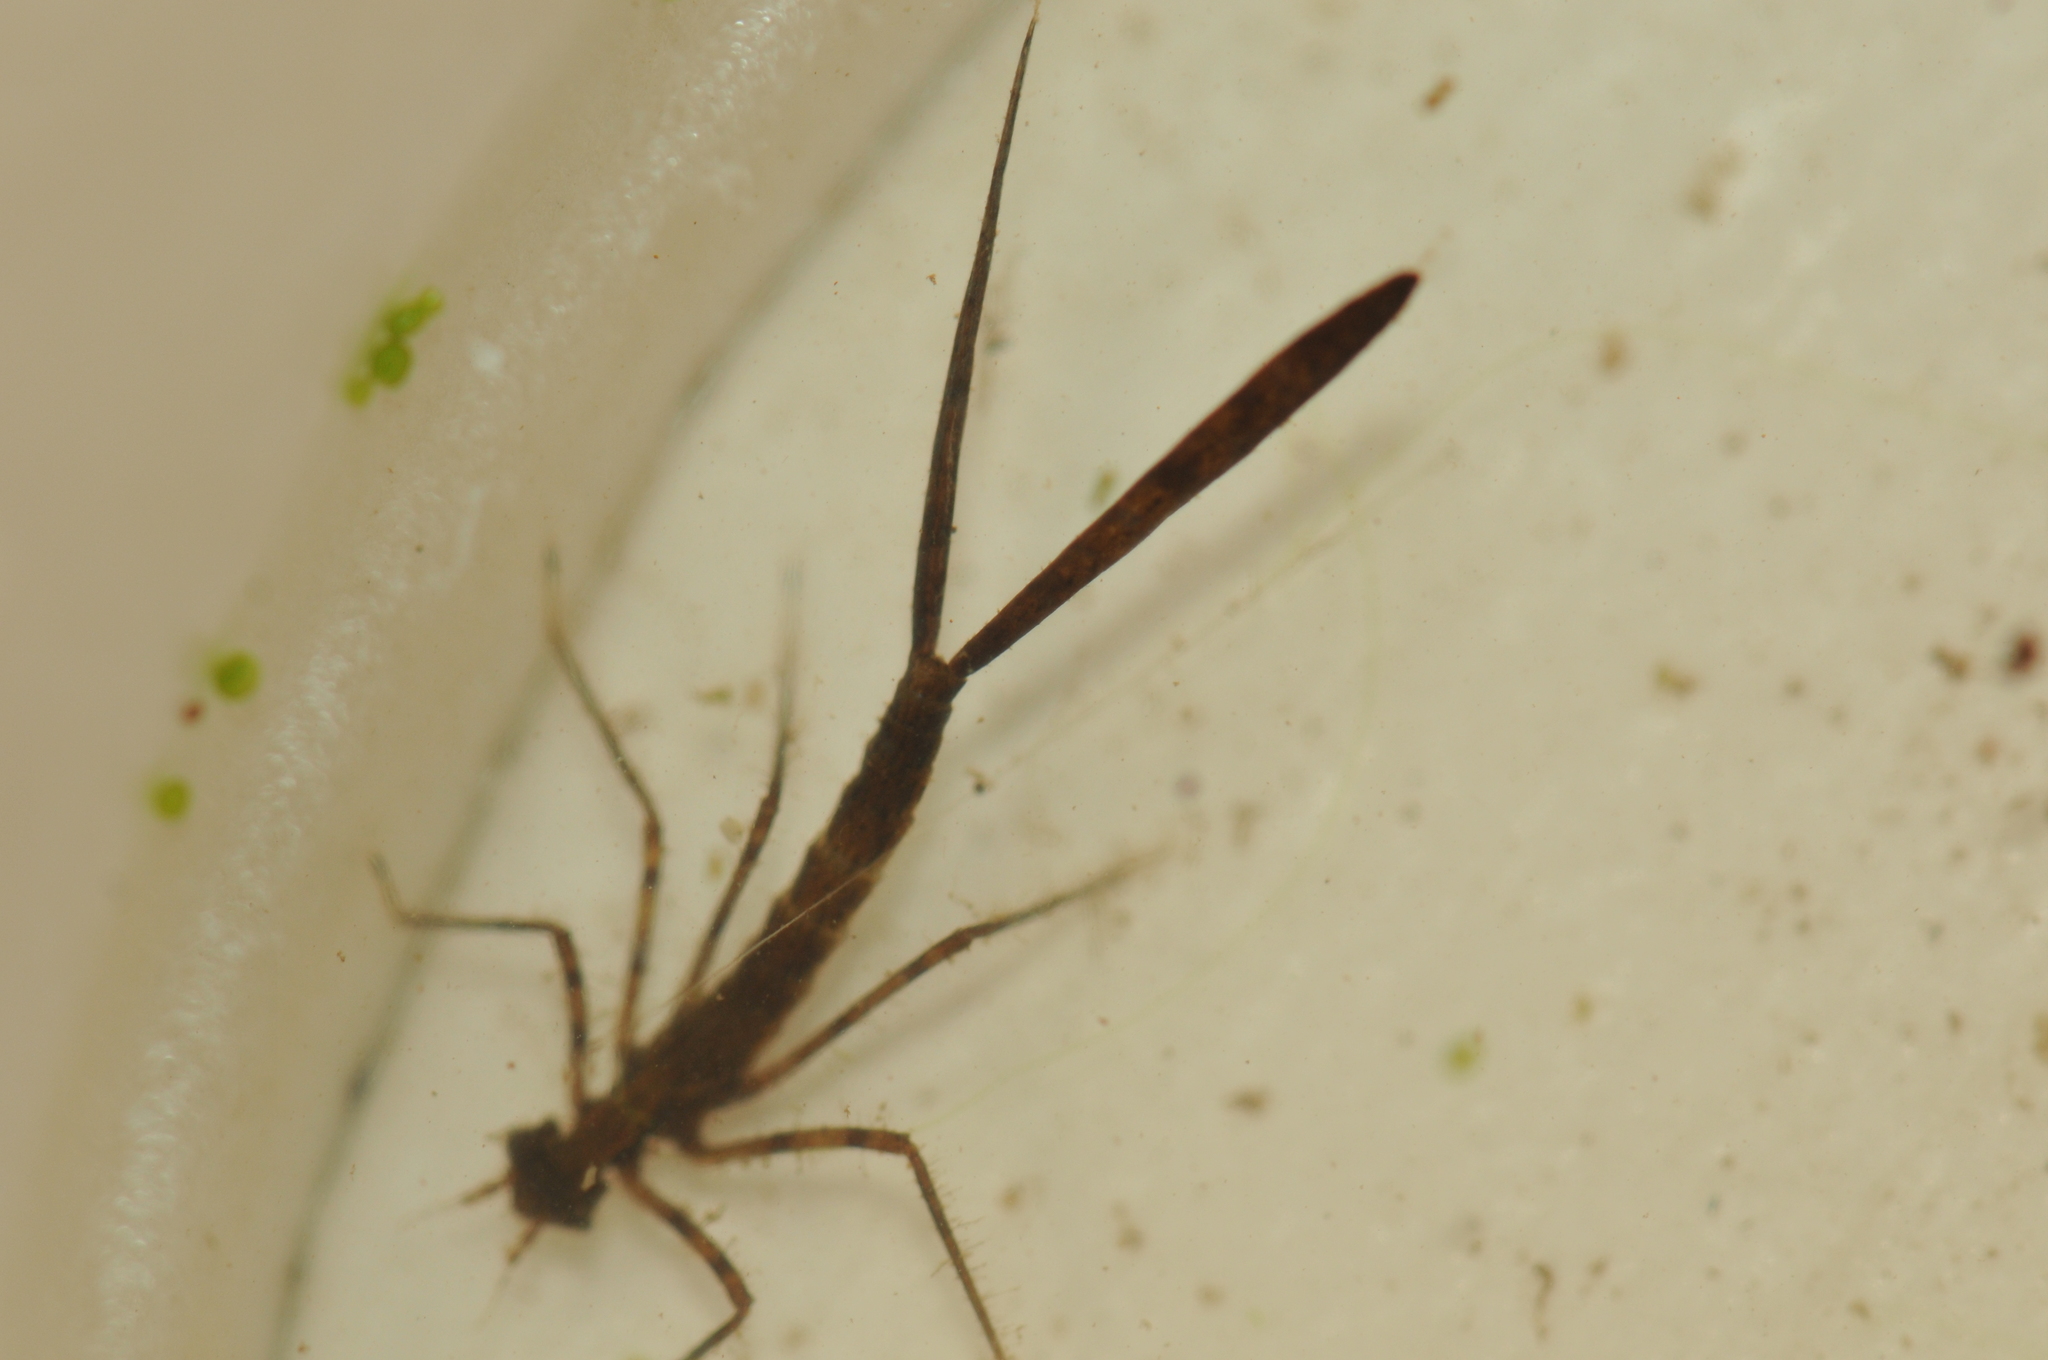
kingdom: Animalia
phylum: Arthropoda
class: Insecta
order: Odonata
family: Calopterygidae
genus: Matrona
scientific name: Matrona cyanoptera
